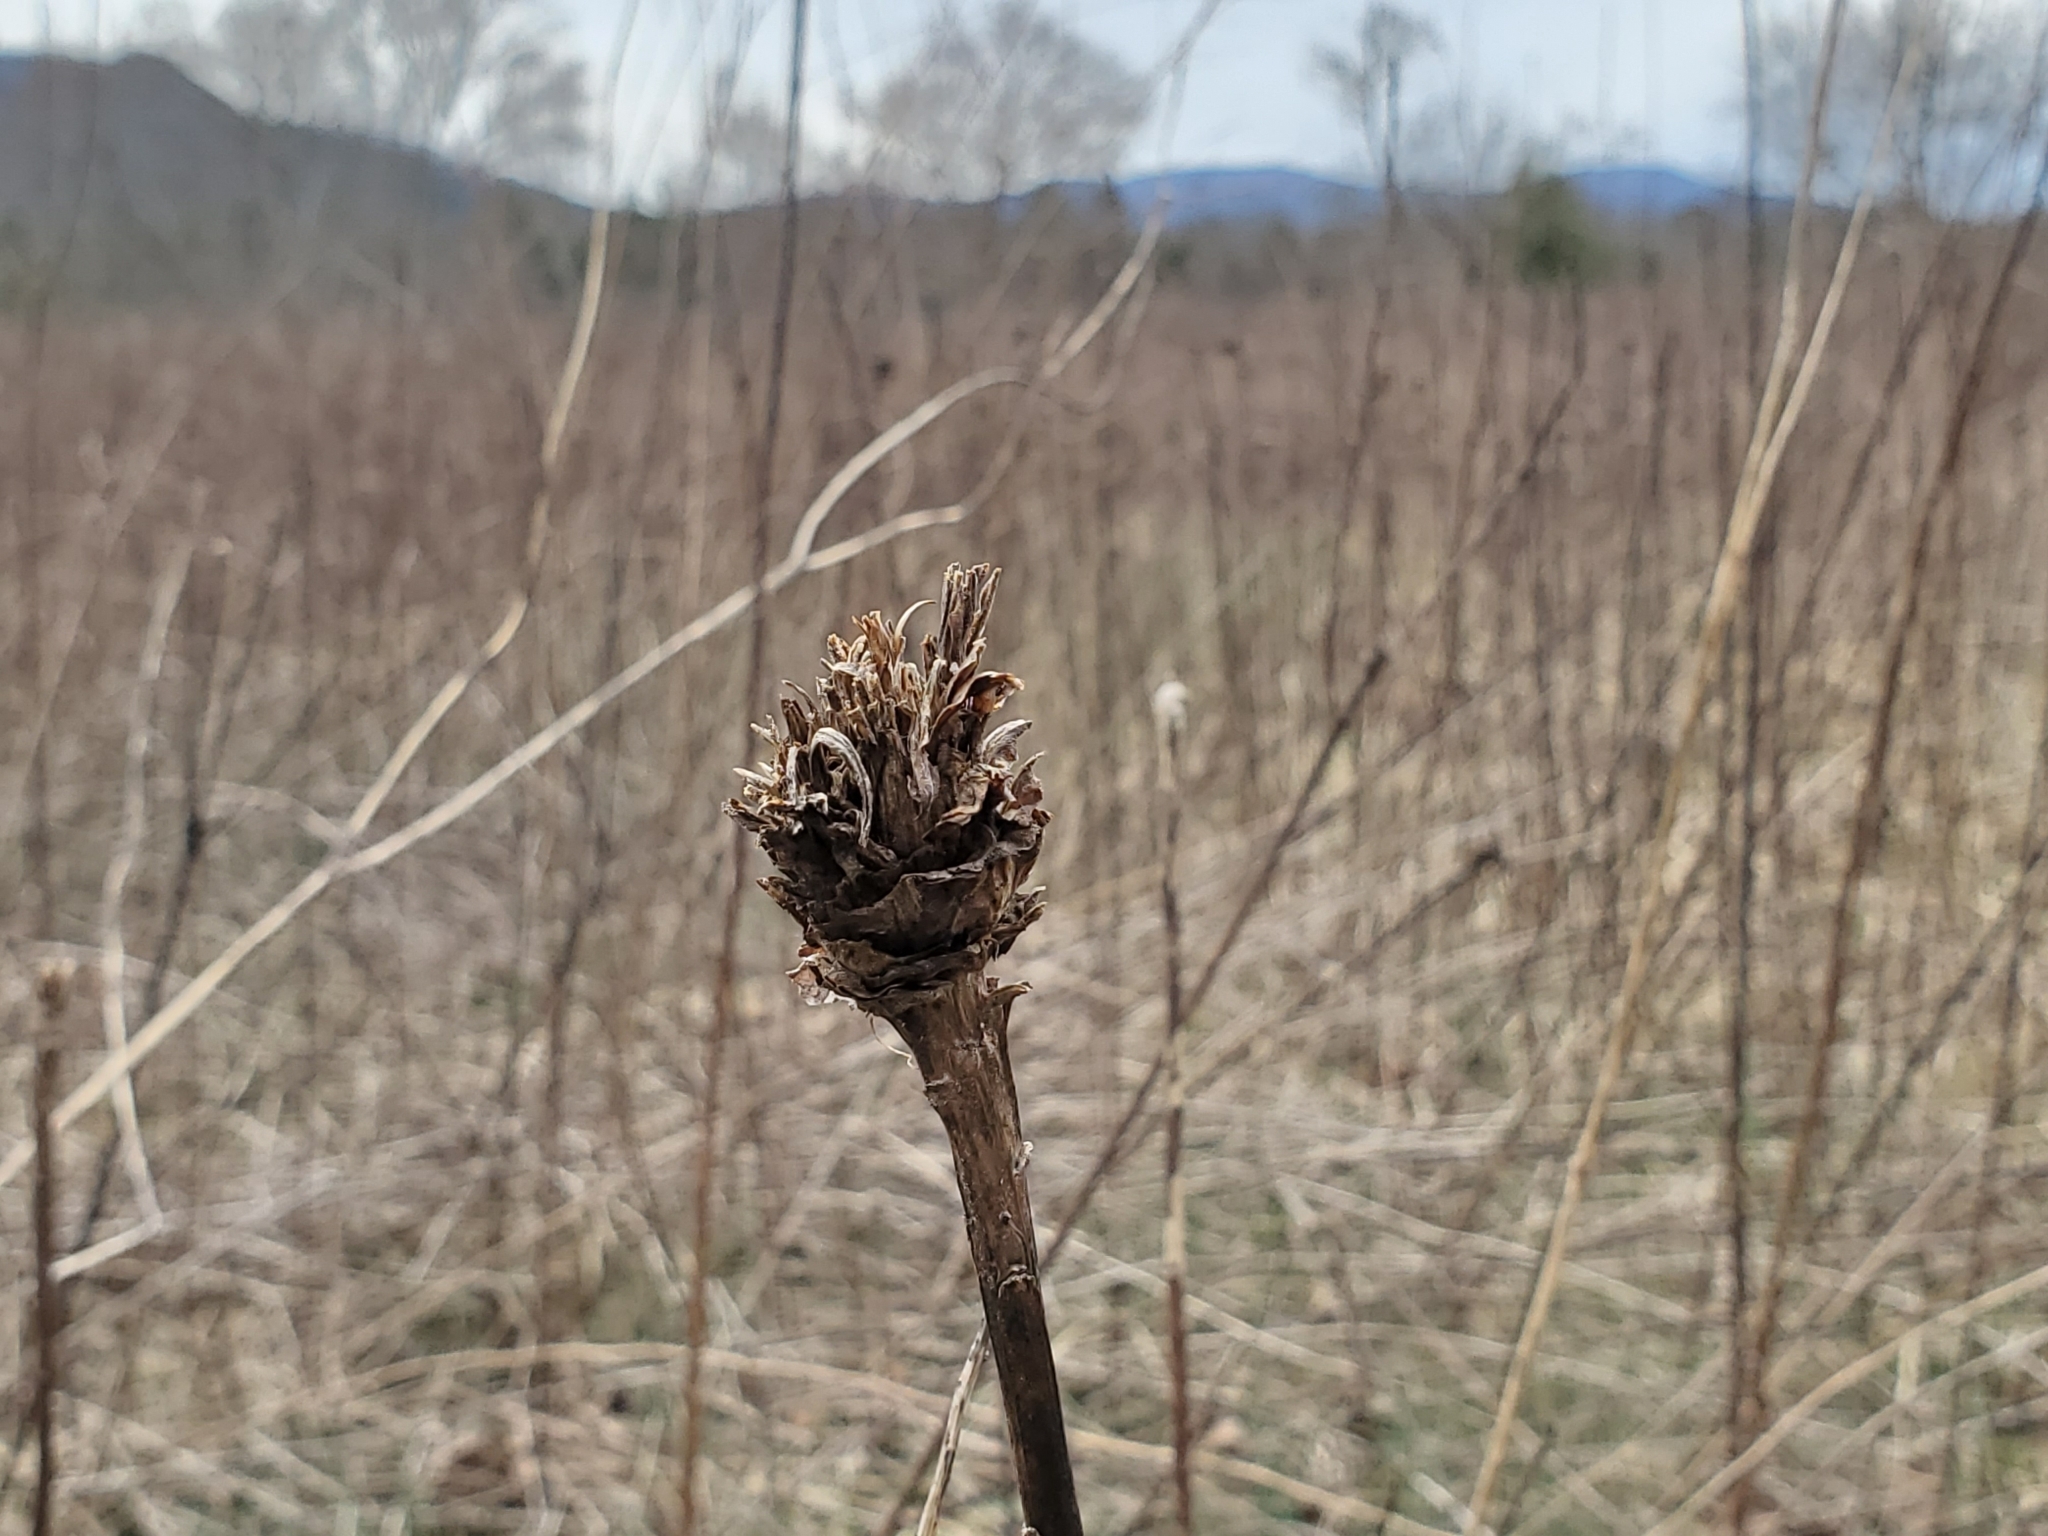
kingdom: Animalia
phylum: Arthropoda
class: Insecta
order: Diptera
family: Cecidomyiidae
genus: Rhopalomyia
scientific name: Rhopalomyia solidaginis
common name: Goldenrod bunch gall midge
